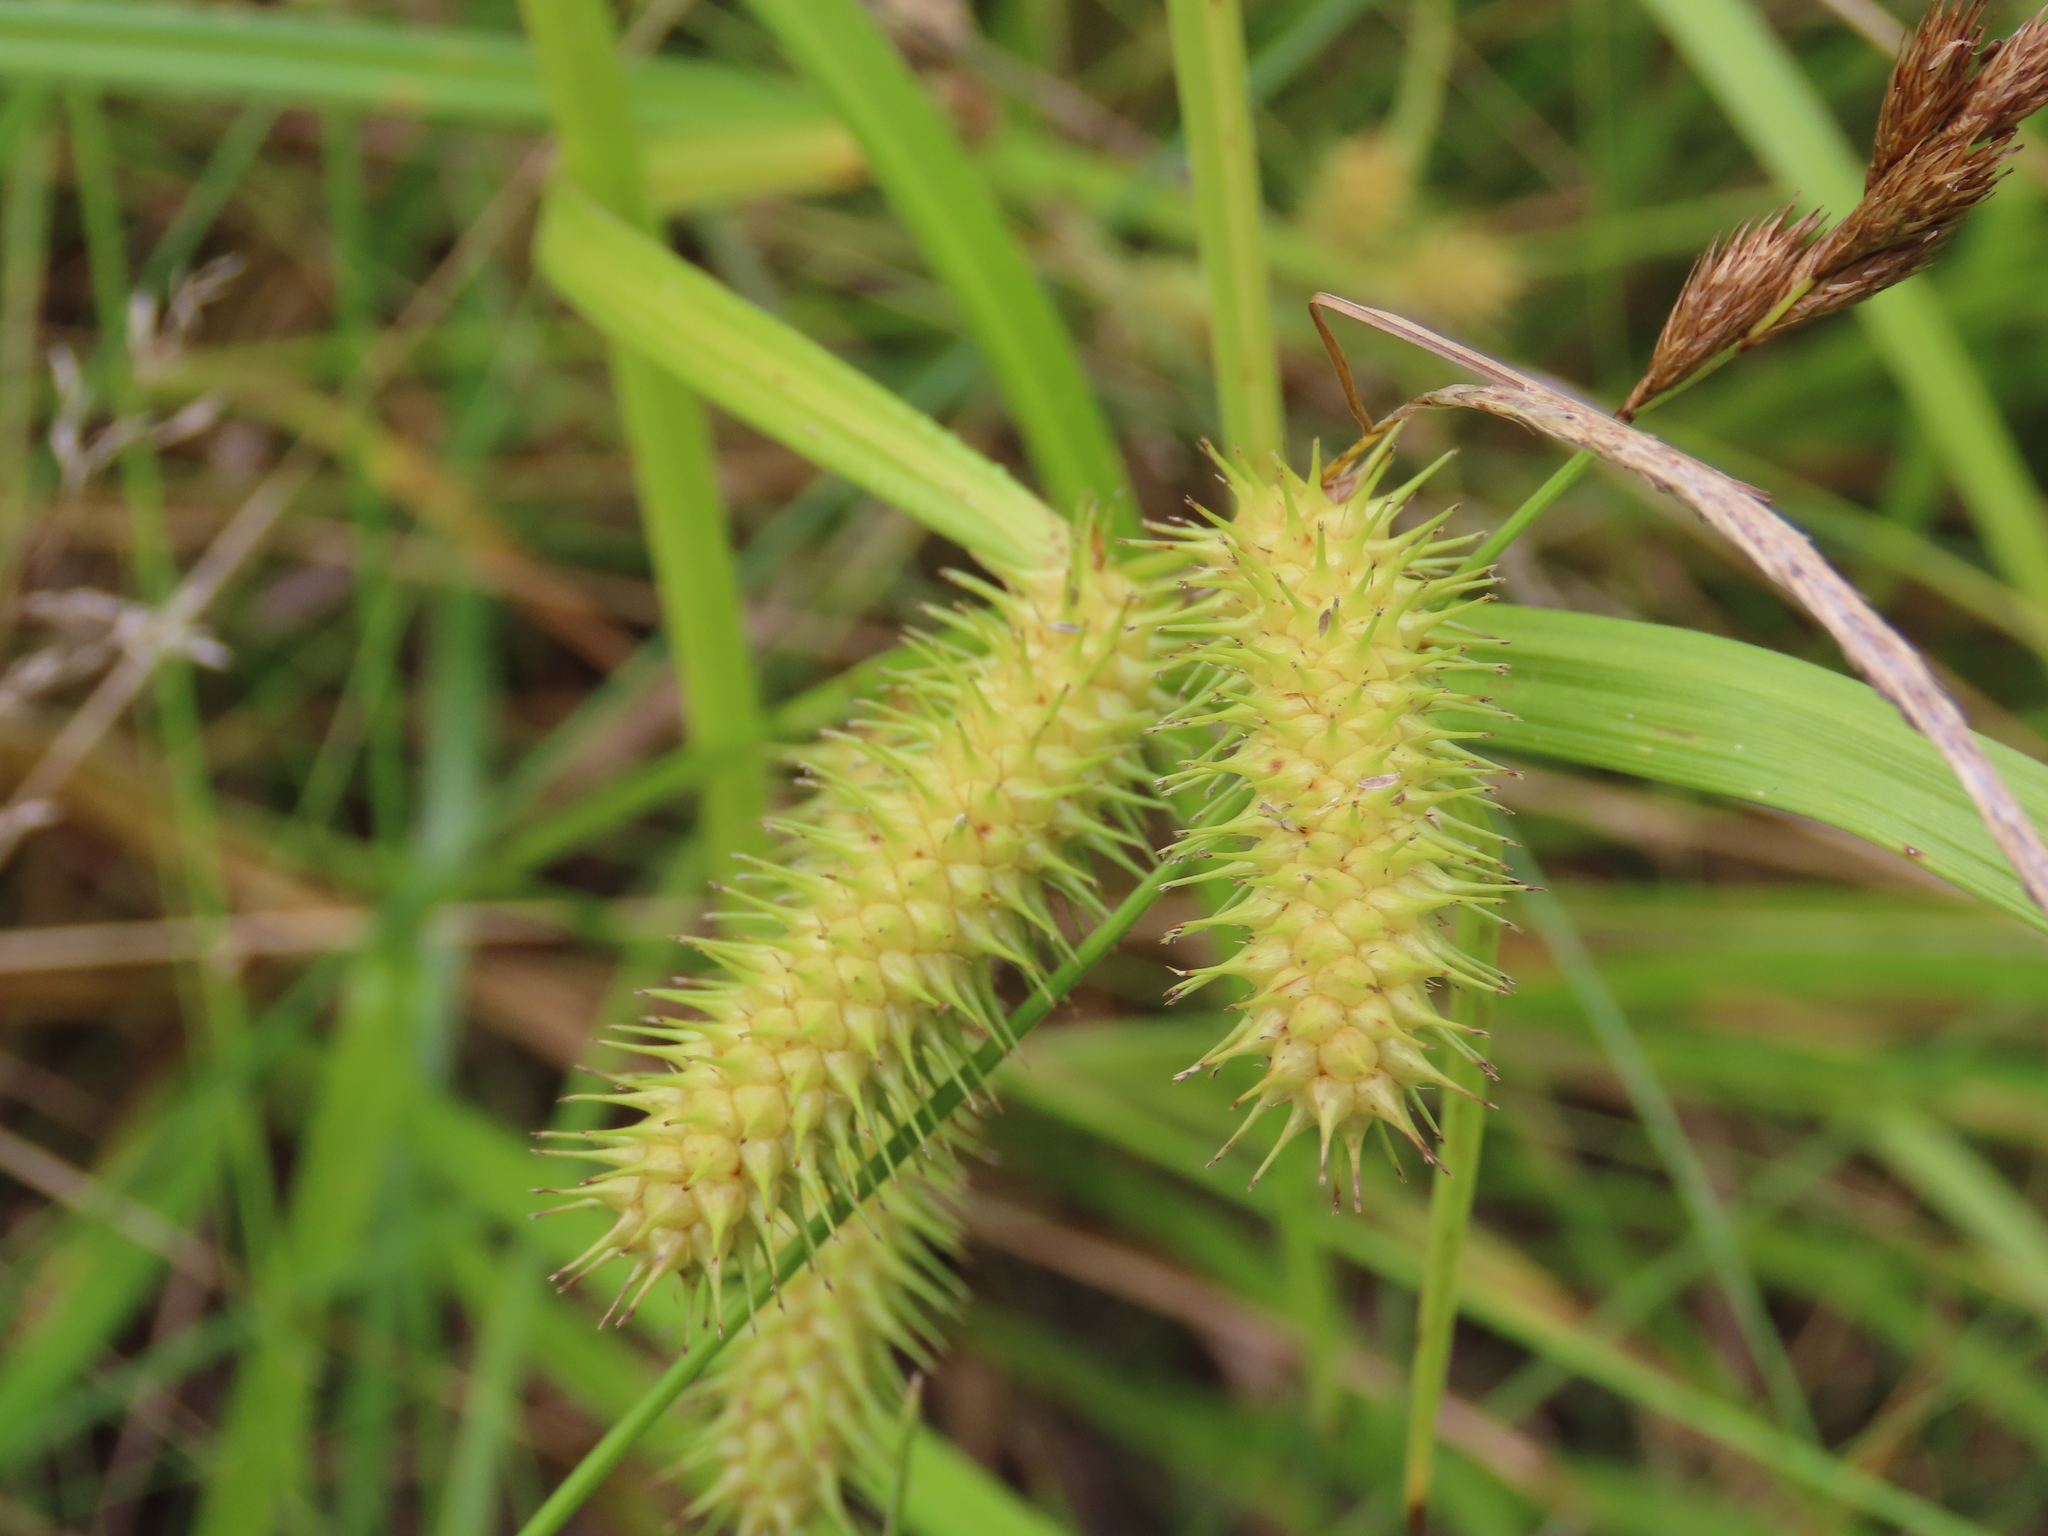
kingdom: Plantae
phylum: Tracheophyta
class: Liliopsida
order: Poales
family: Cyperaceae
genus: Carex
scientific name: Carex lurida
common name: Sallow sedge
